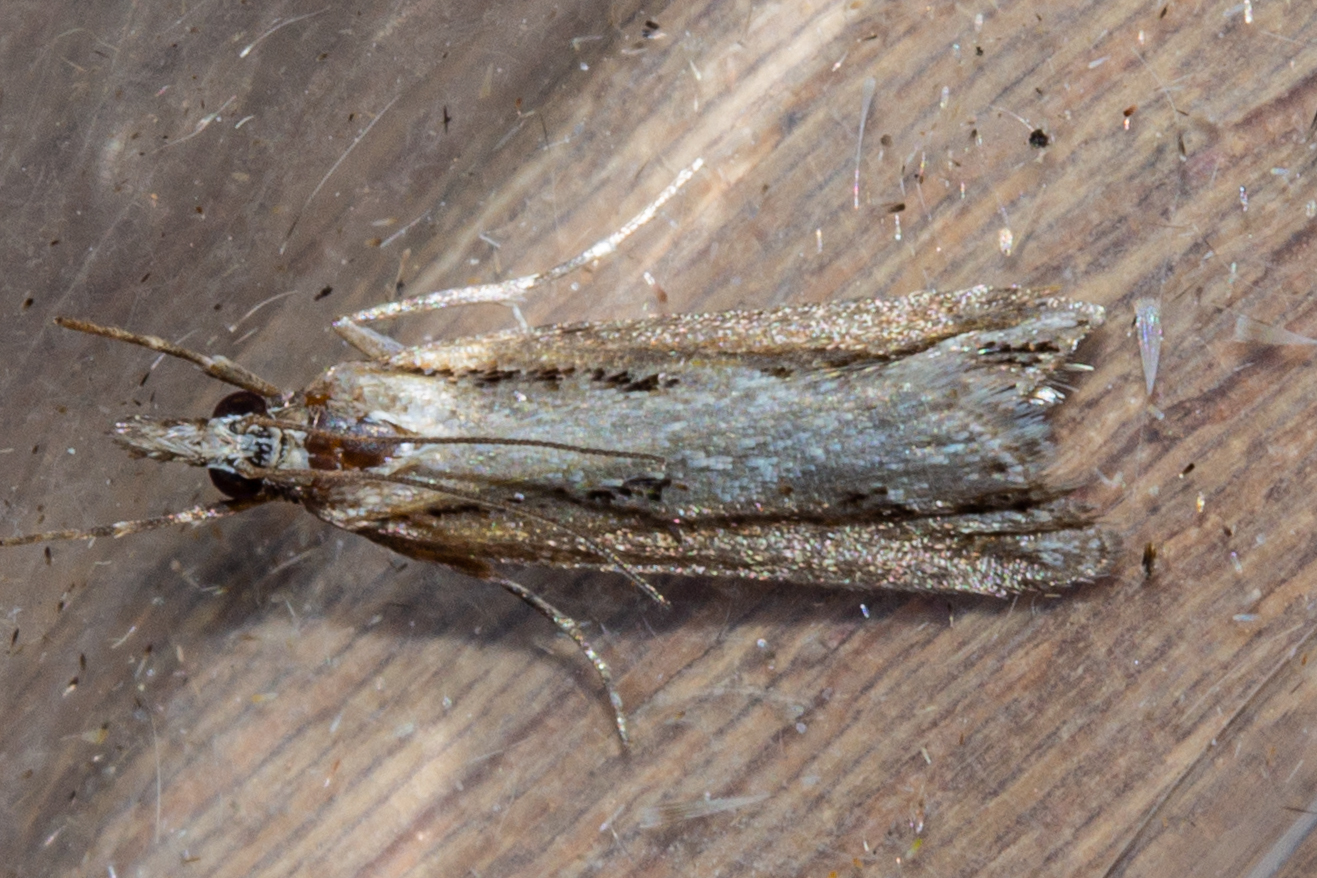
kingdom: Animalia
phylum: Arthropoda
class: Insecta
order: Lepidoptera
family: Crambidae
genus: Eudonia
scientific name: Eudonia steropaea
